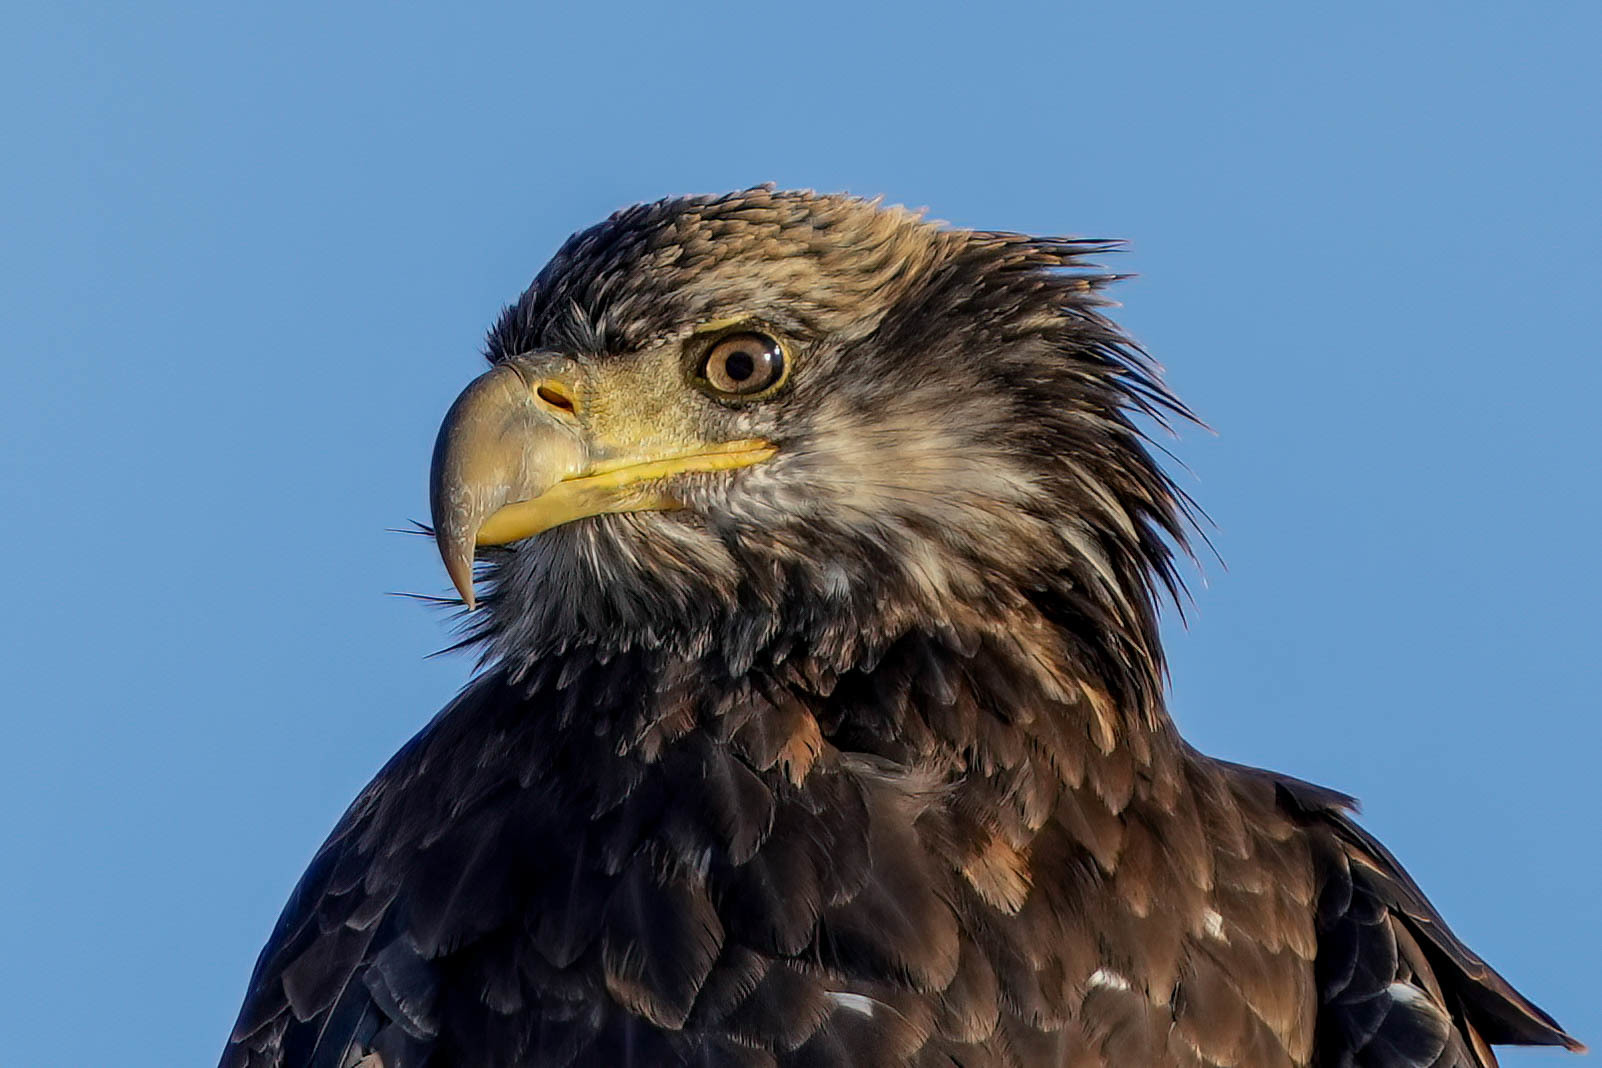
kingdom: Animalia
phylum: Chordata
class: Aves
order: Accipitriformes
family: Accipitridae
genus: Haliaeetus
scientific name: Haliaeetus leucocephalus
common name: Bald eagle
